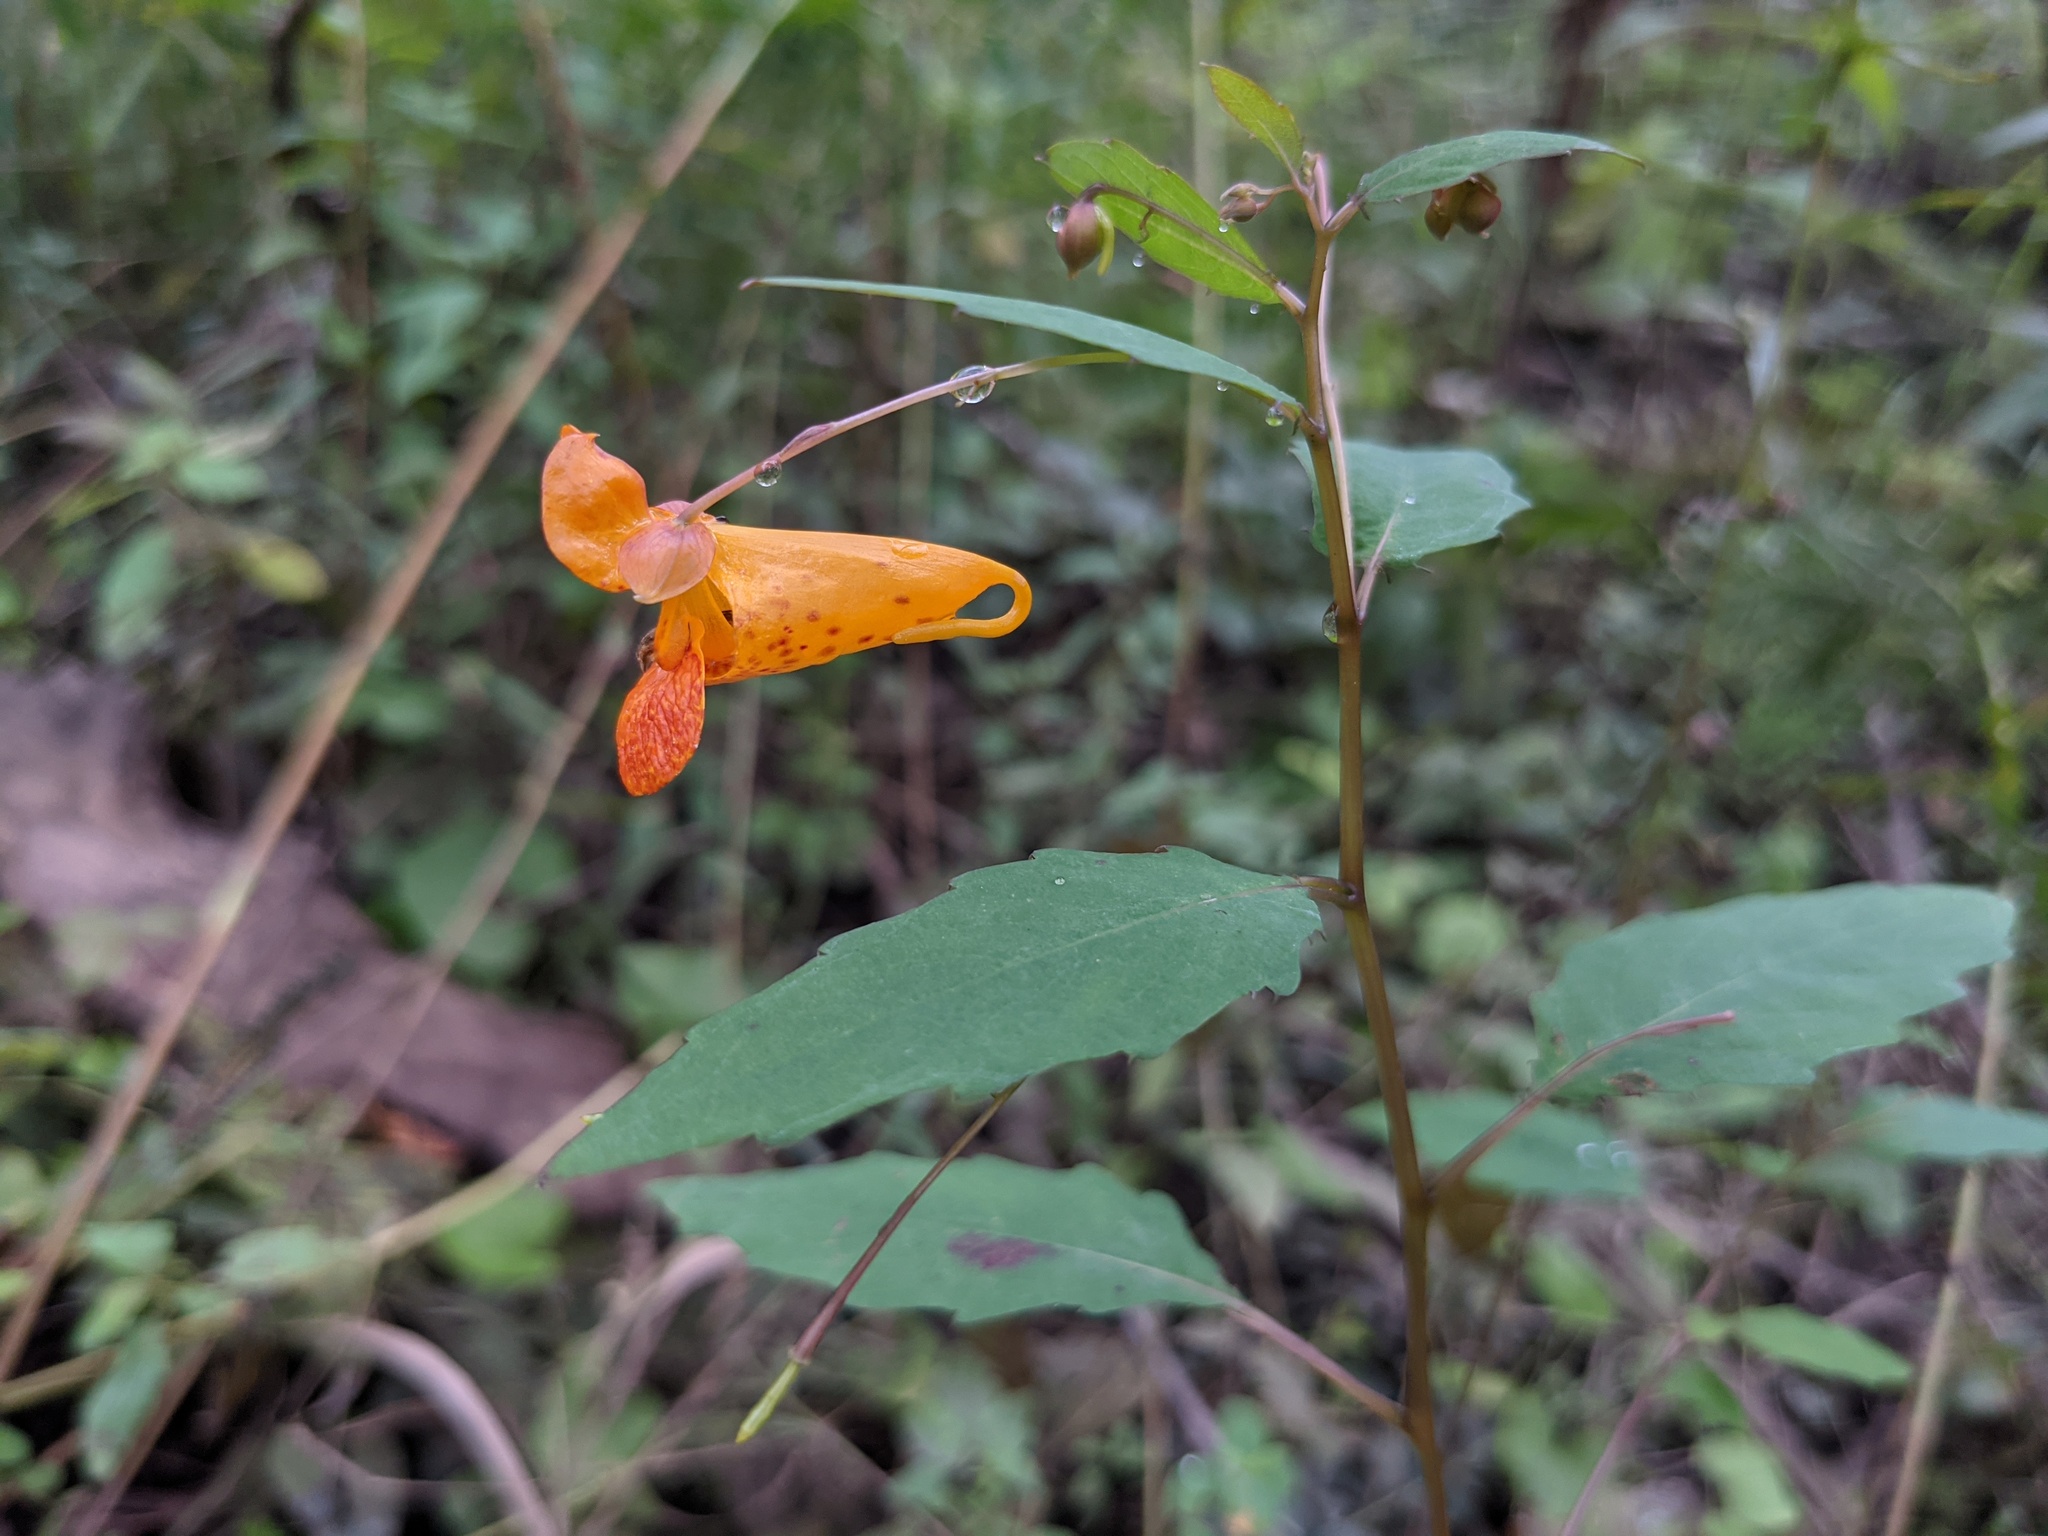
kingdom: Plantae
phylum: Tracheophyta
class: Magnoliopsida
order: Ericales
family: Balsaminaceae
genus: Impatiens
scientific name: Impatiens capensis
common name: Orange balsam
